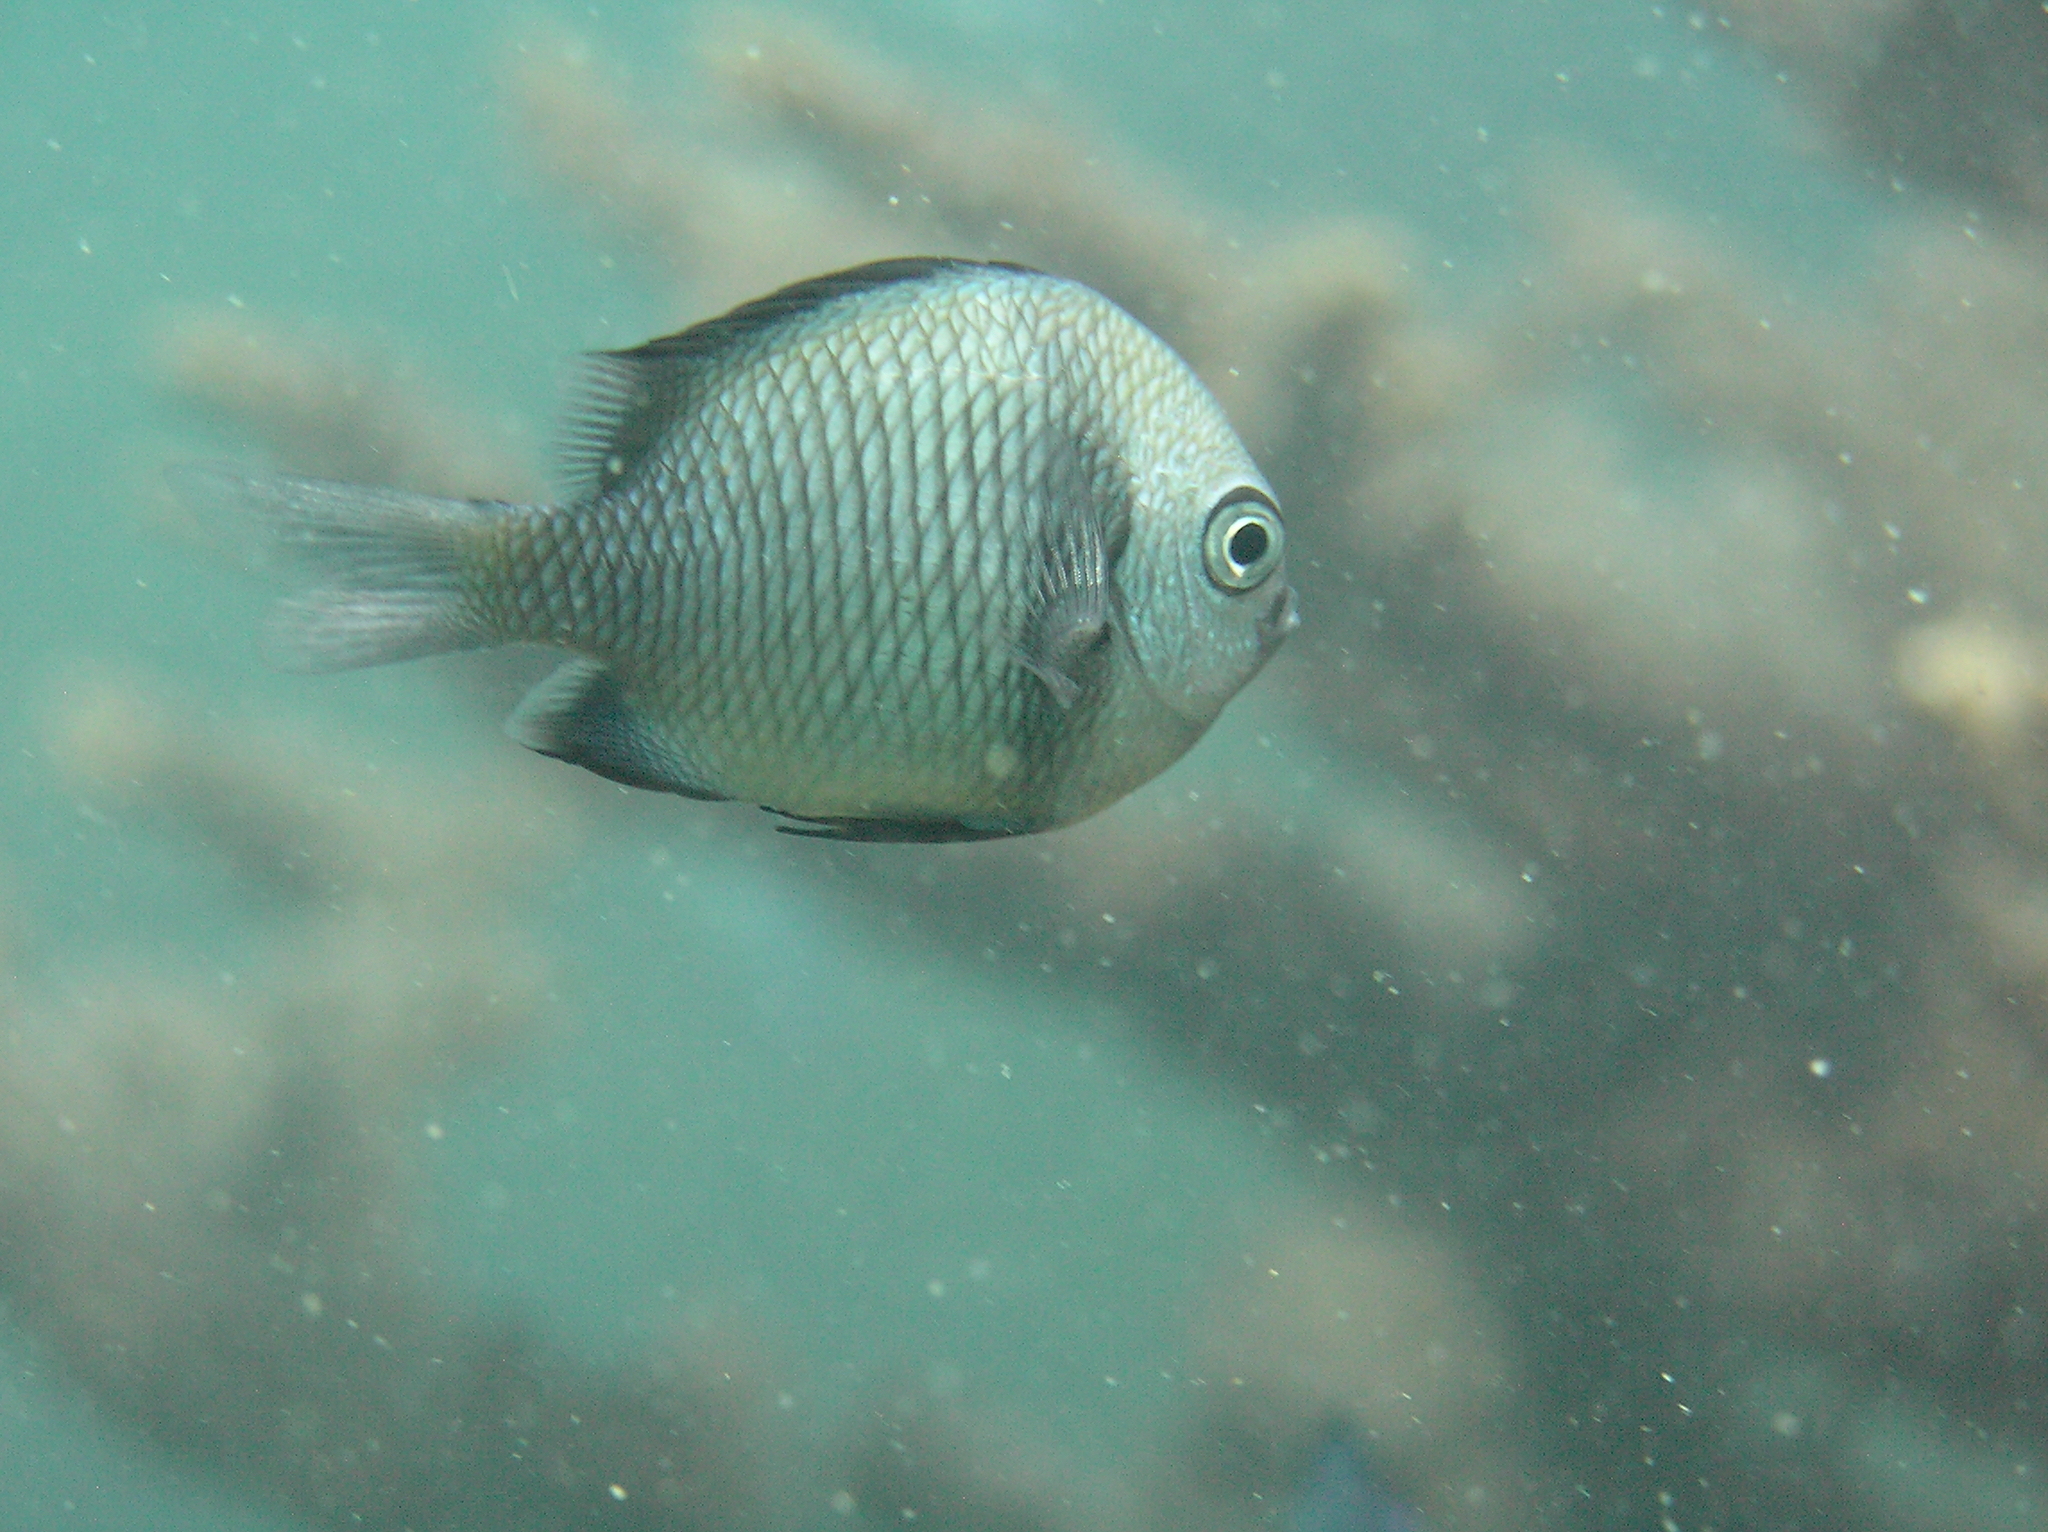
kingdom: Animalia
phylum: Chordata
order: Perciformes
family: Pomacentridae
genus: Dascyllus
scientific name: Dascyllus reticulatus
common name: Reticulated dascyllus
